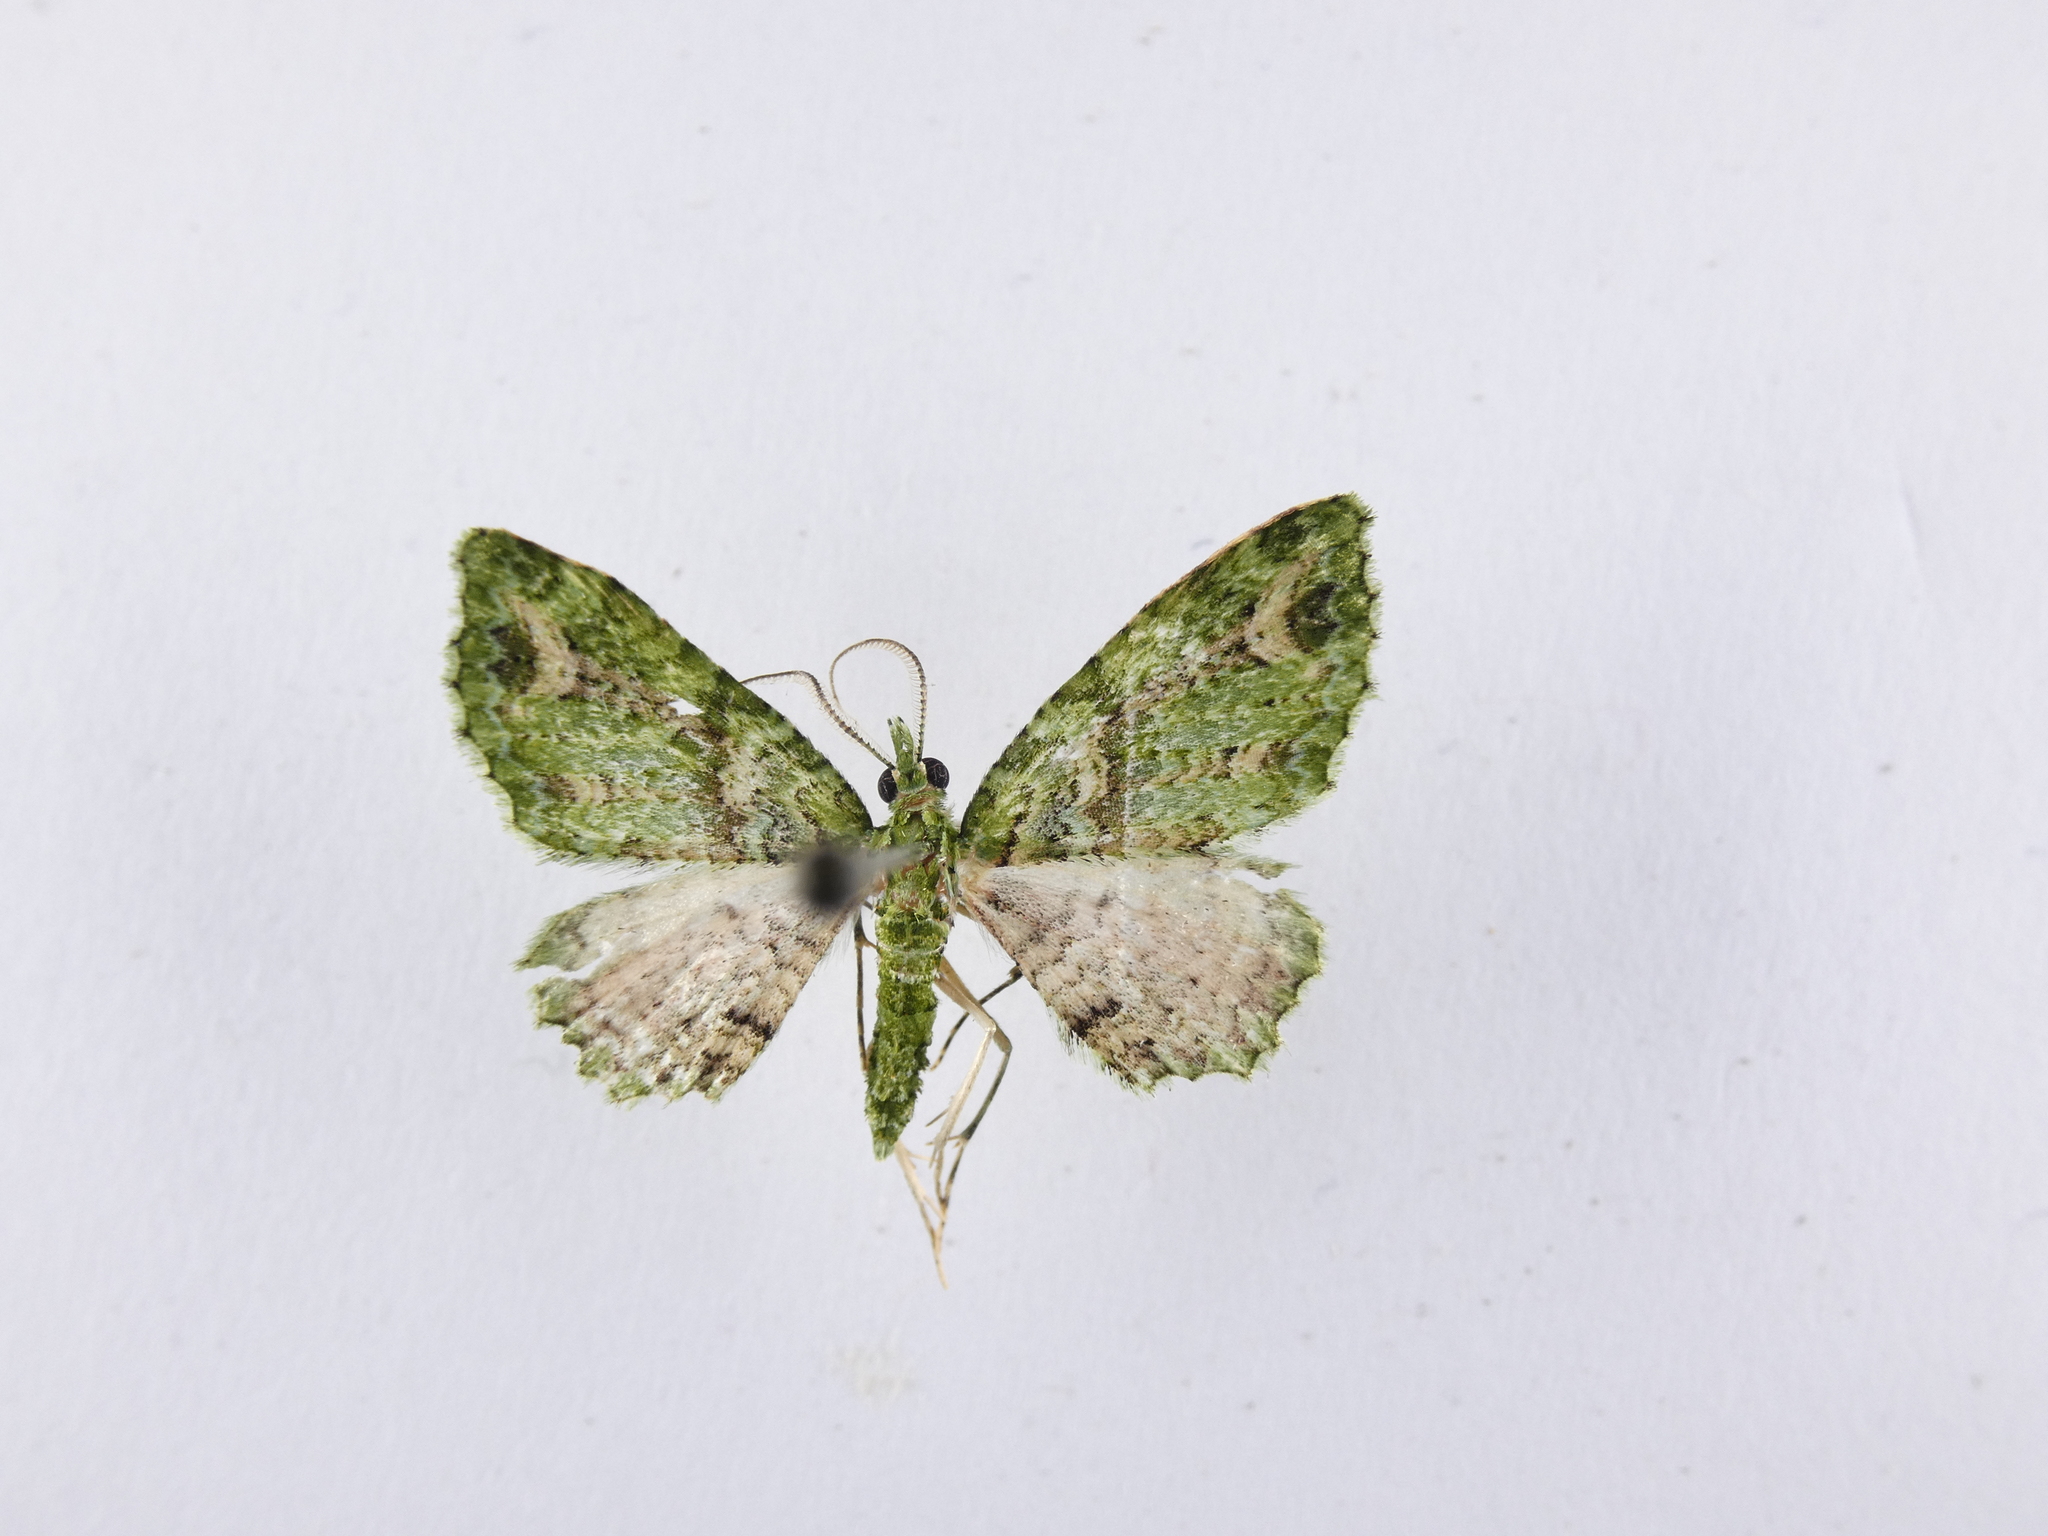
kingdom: Animalia
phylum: Arthropoda
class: Insecta
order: Lepidoptera
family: Geometridae
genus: Pasiphila
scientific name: Pasiphila muscosata
